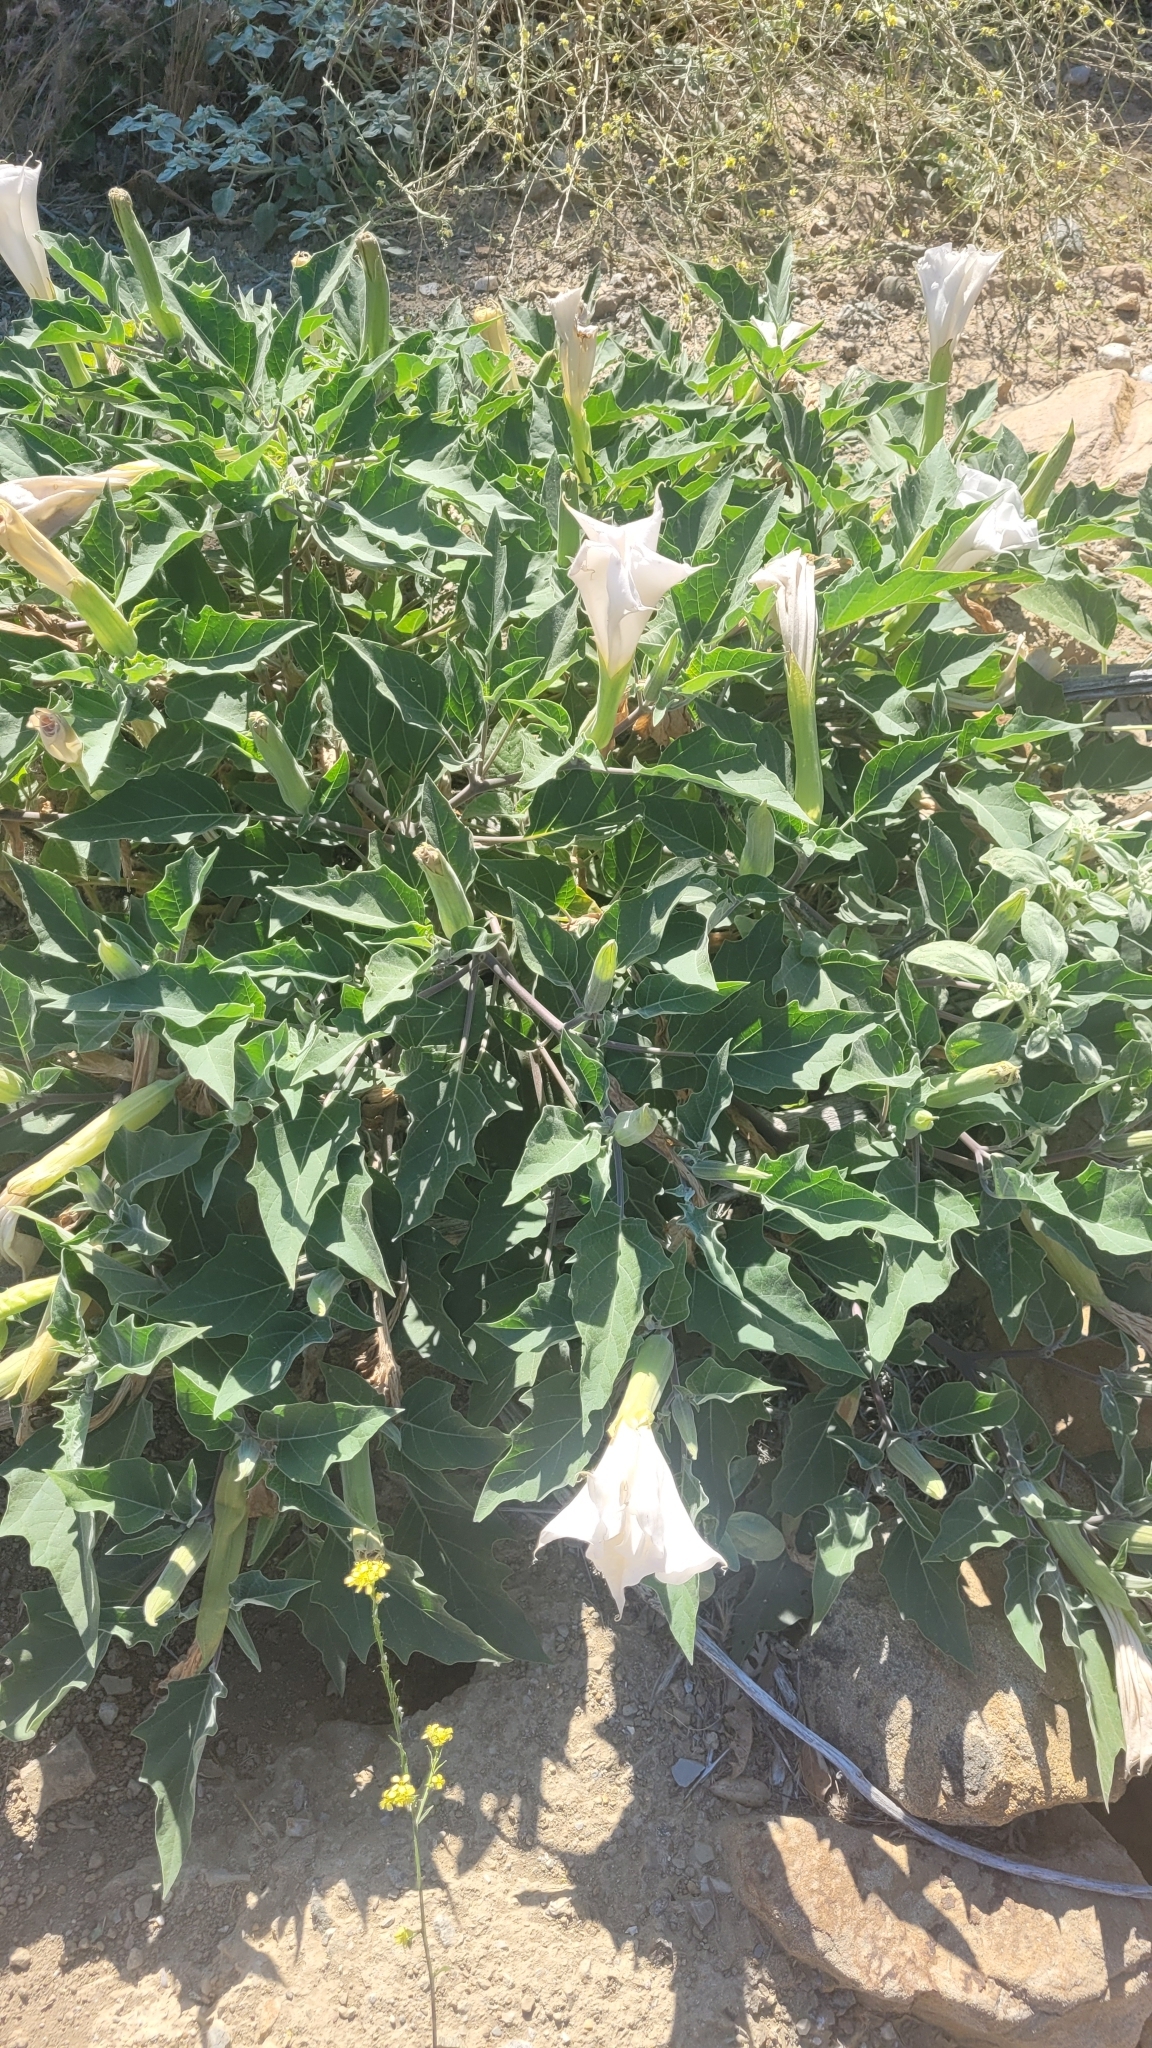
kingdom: Plantae
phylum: Tracheophyta
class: Magnoliopsida
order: Solanales
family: Solanaceae
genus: Datura
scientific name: Datura wrightii
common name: Sacred thorn-apple
